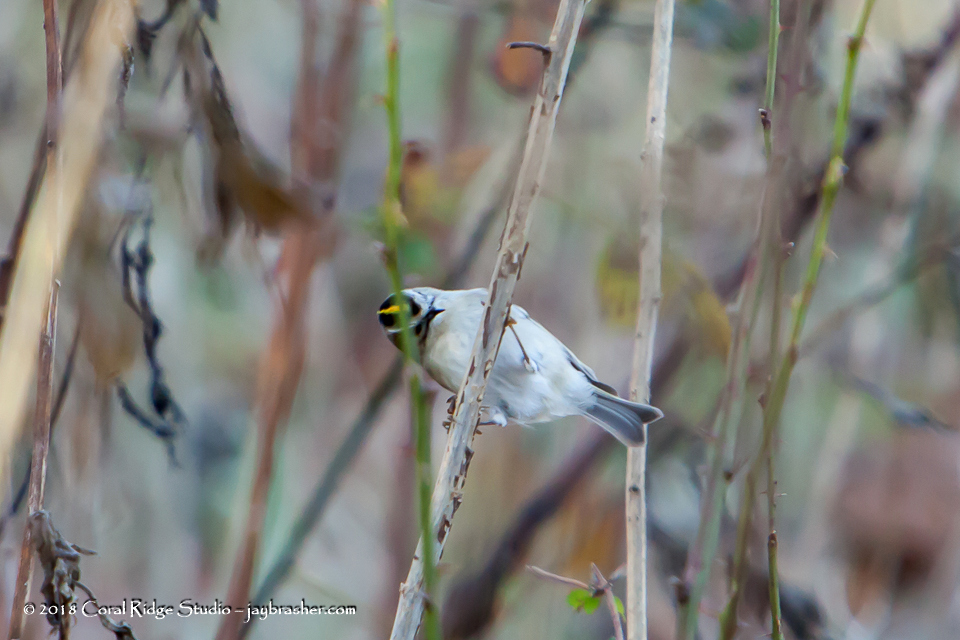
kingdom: Animalia
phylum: Chordata
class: Aves
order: Passeriformes
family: Regulidae
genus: Regulus
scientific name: Regulus satrapa
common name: Golden-crowned kinglet
